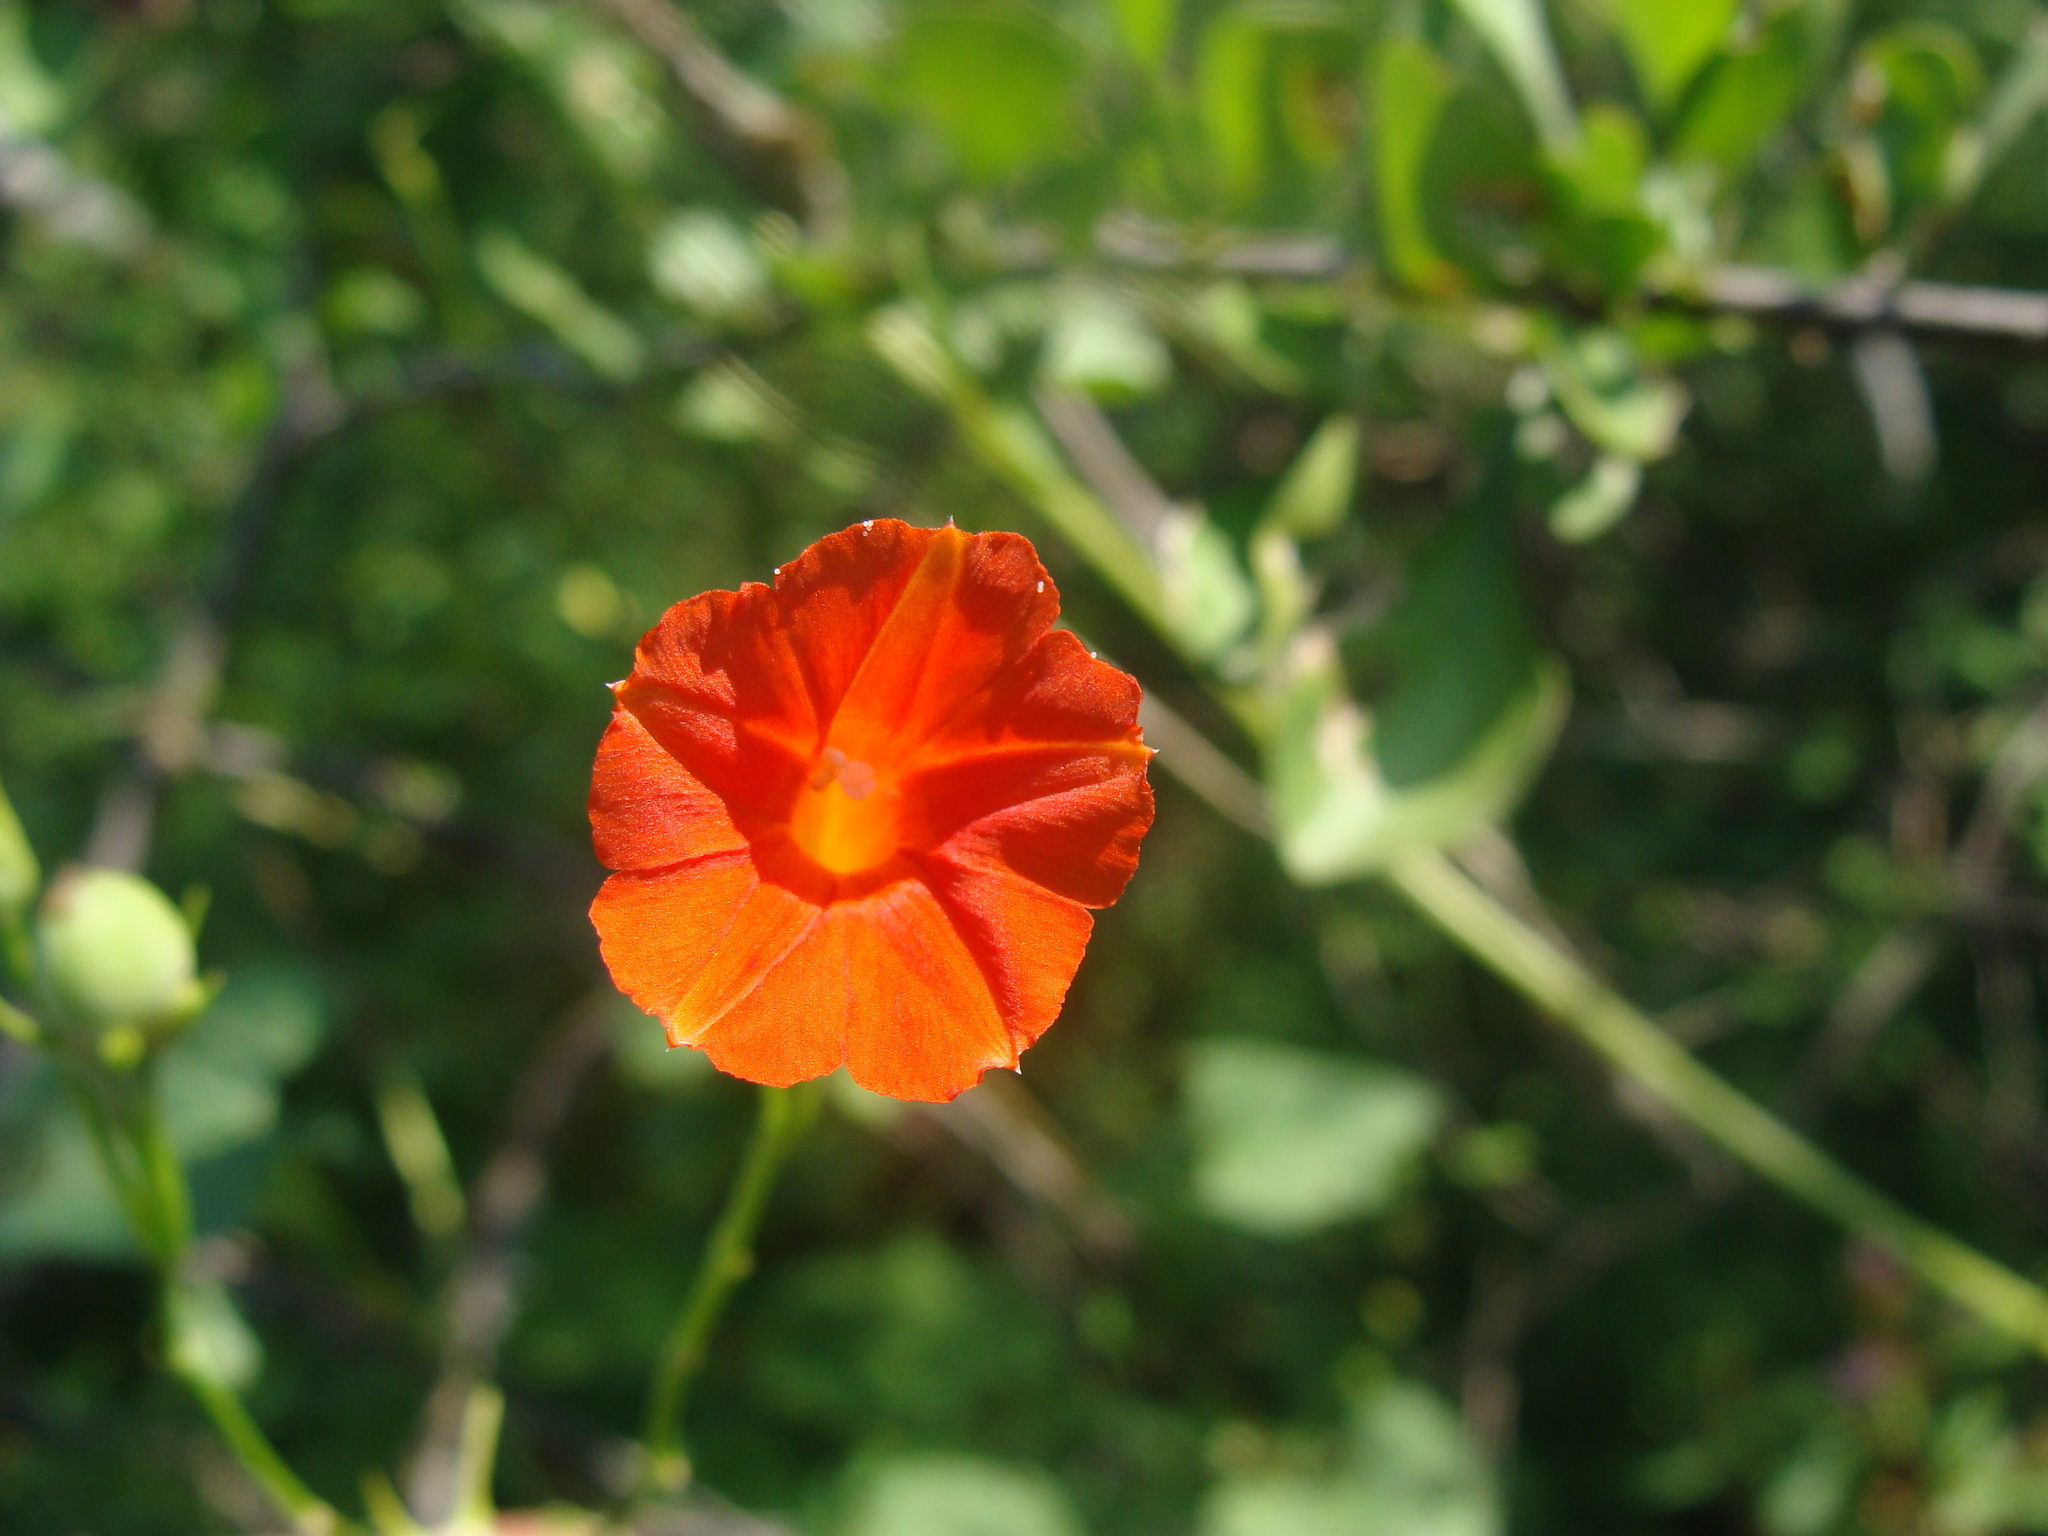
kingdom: Plantae
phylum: Tracheophyta
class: Magnoliopsida
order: Solanales
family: Convolvulaceae
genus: Ipomoea
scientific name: Ipomoea hederifolia
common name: Ivy-leaf morning-glory
